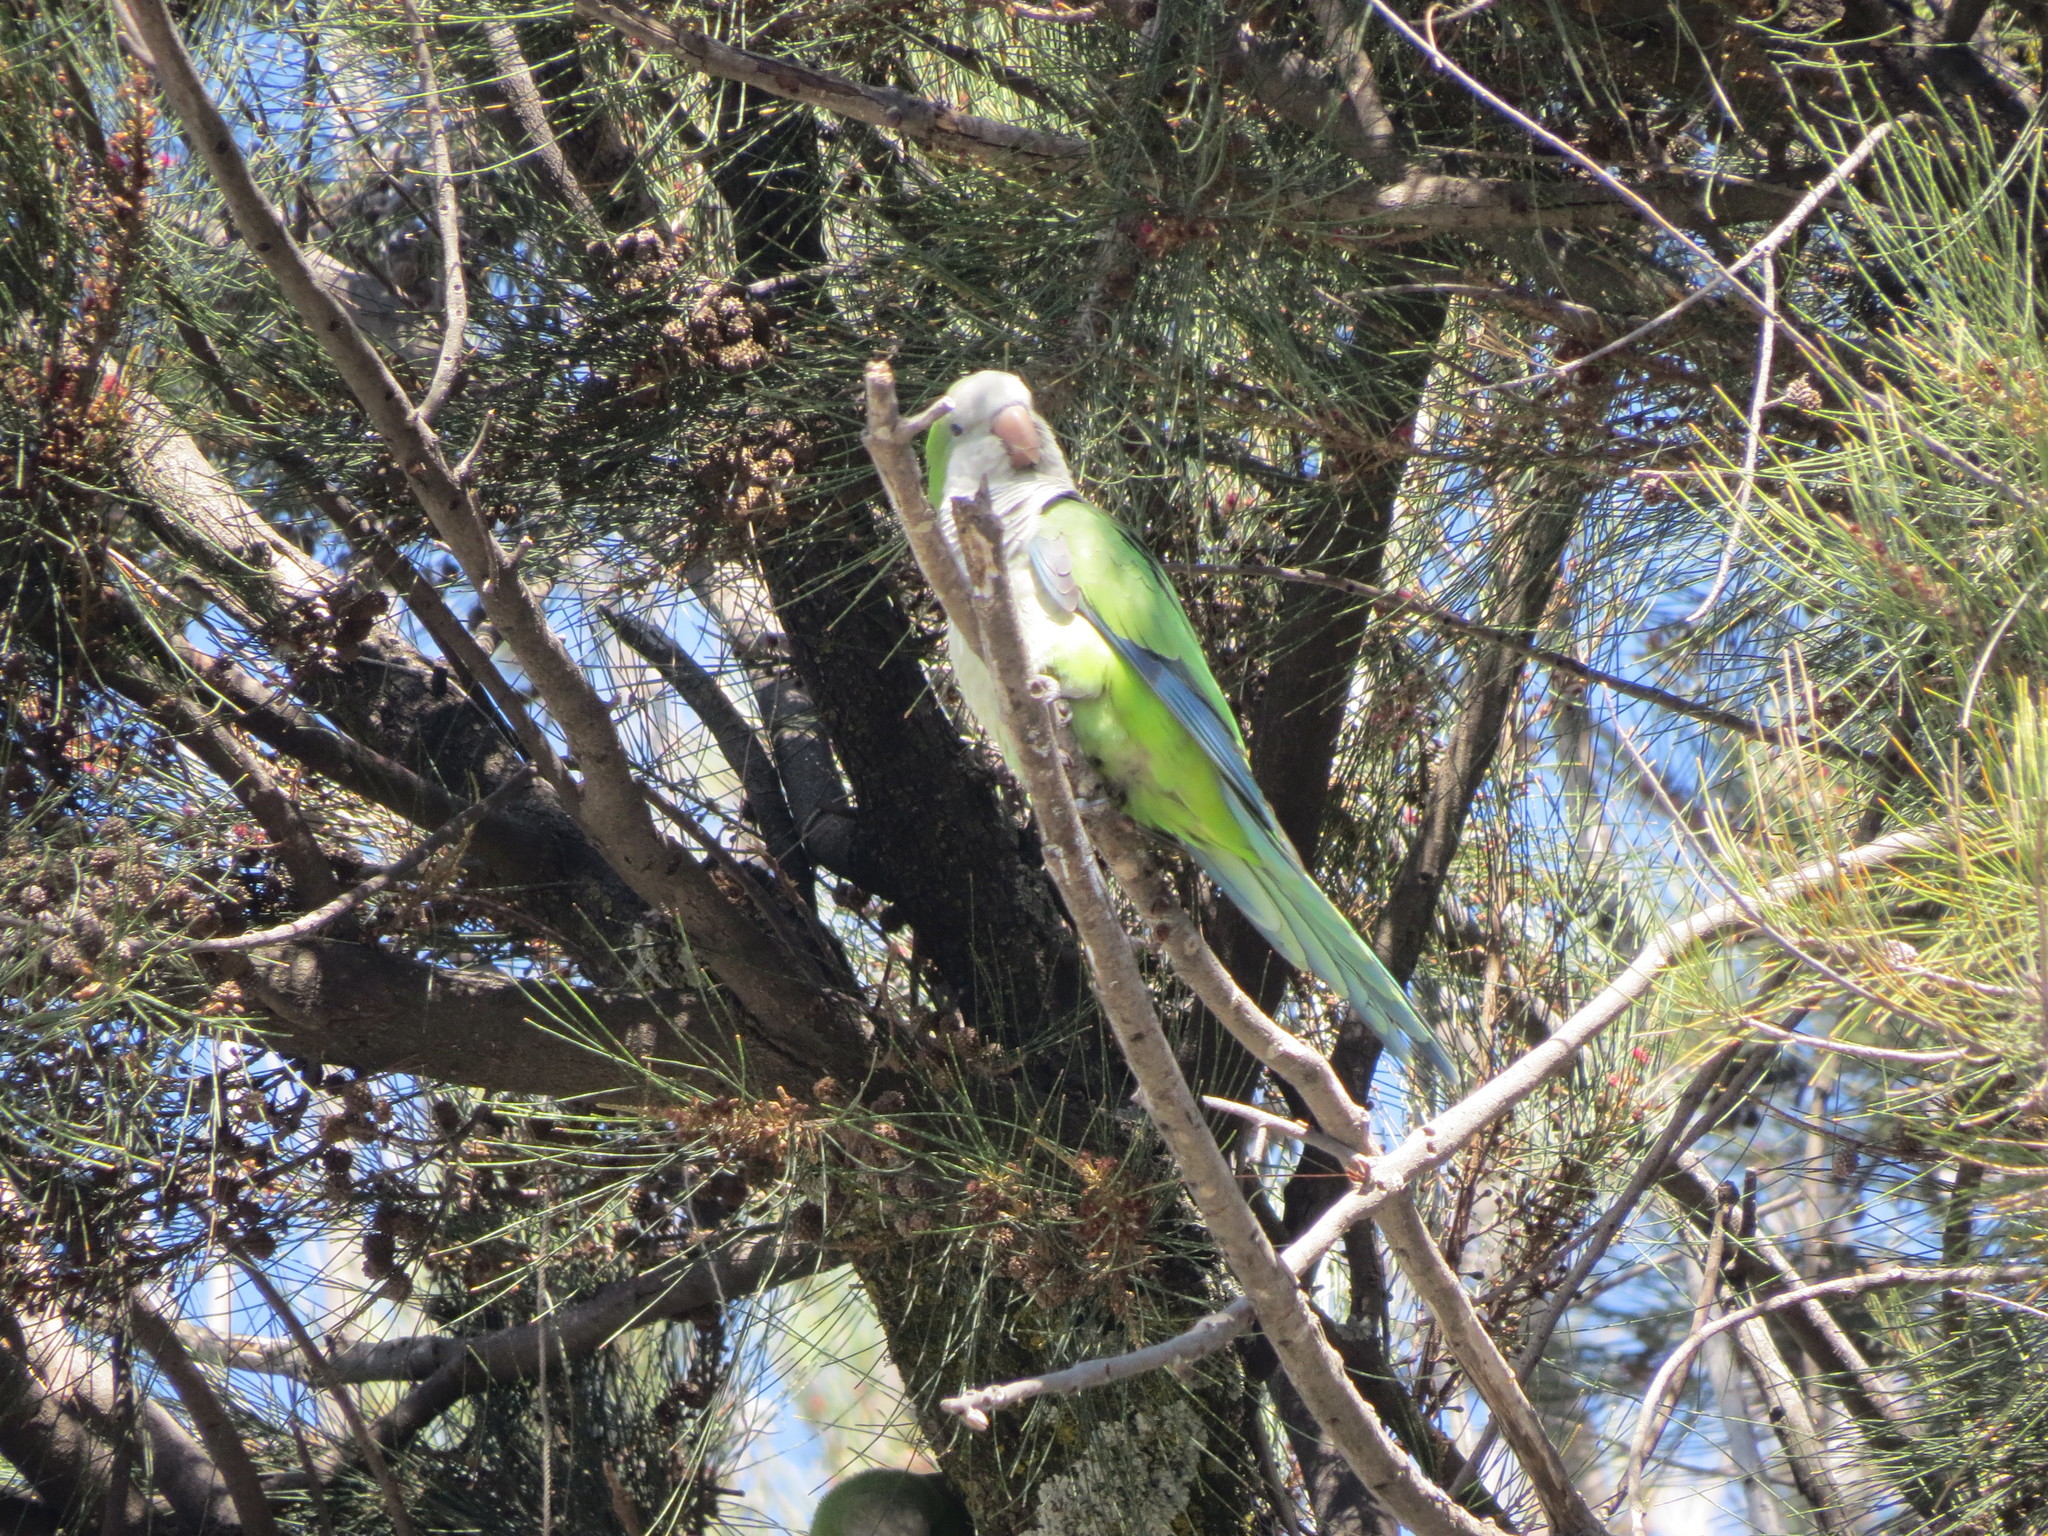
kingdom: Animalia
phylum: Chordata
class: Aves
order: Psittaciformes
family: Psittacidae
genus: Myiopsitta
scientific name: Myiopsitta monachus
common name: Monk parakeet
